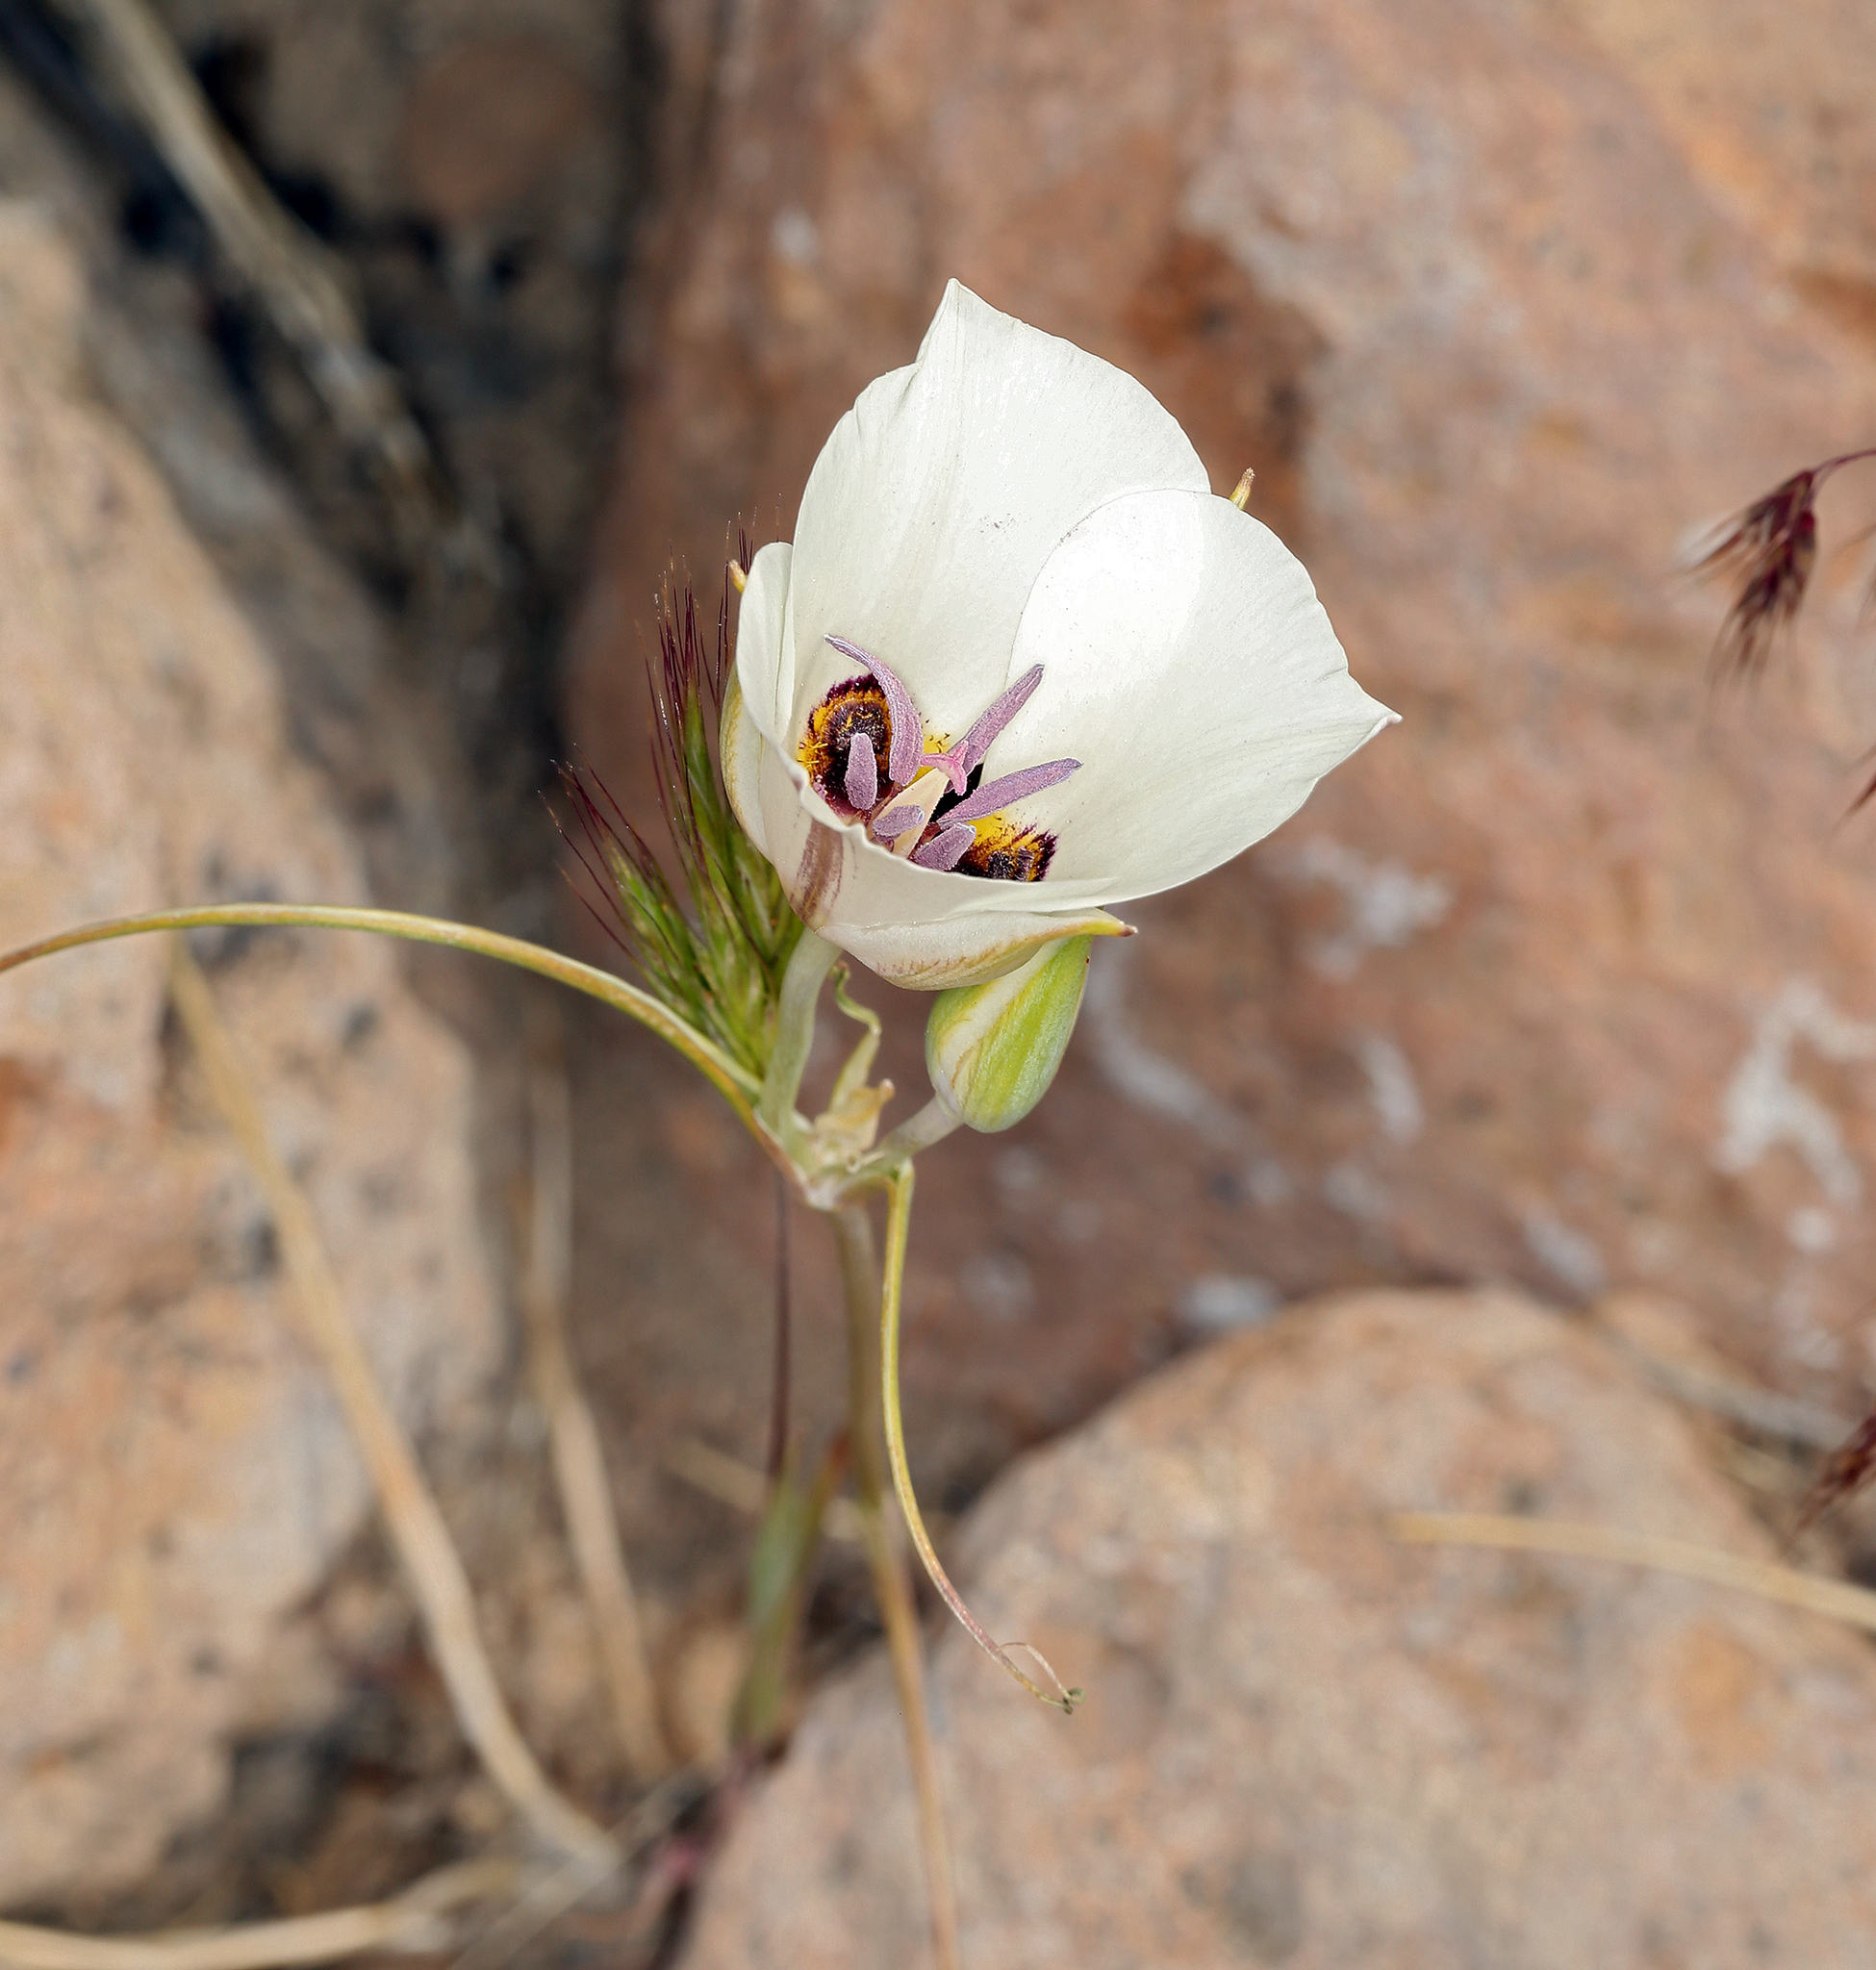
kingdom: Plantae
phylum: Tracheophyta
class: Liliopsida
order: Liliales
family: Liliaceae
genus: Calochortus
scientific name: Calochortus bruneaunis
